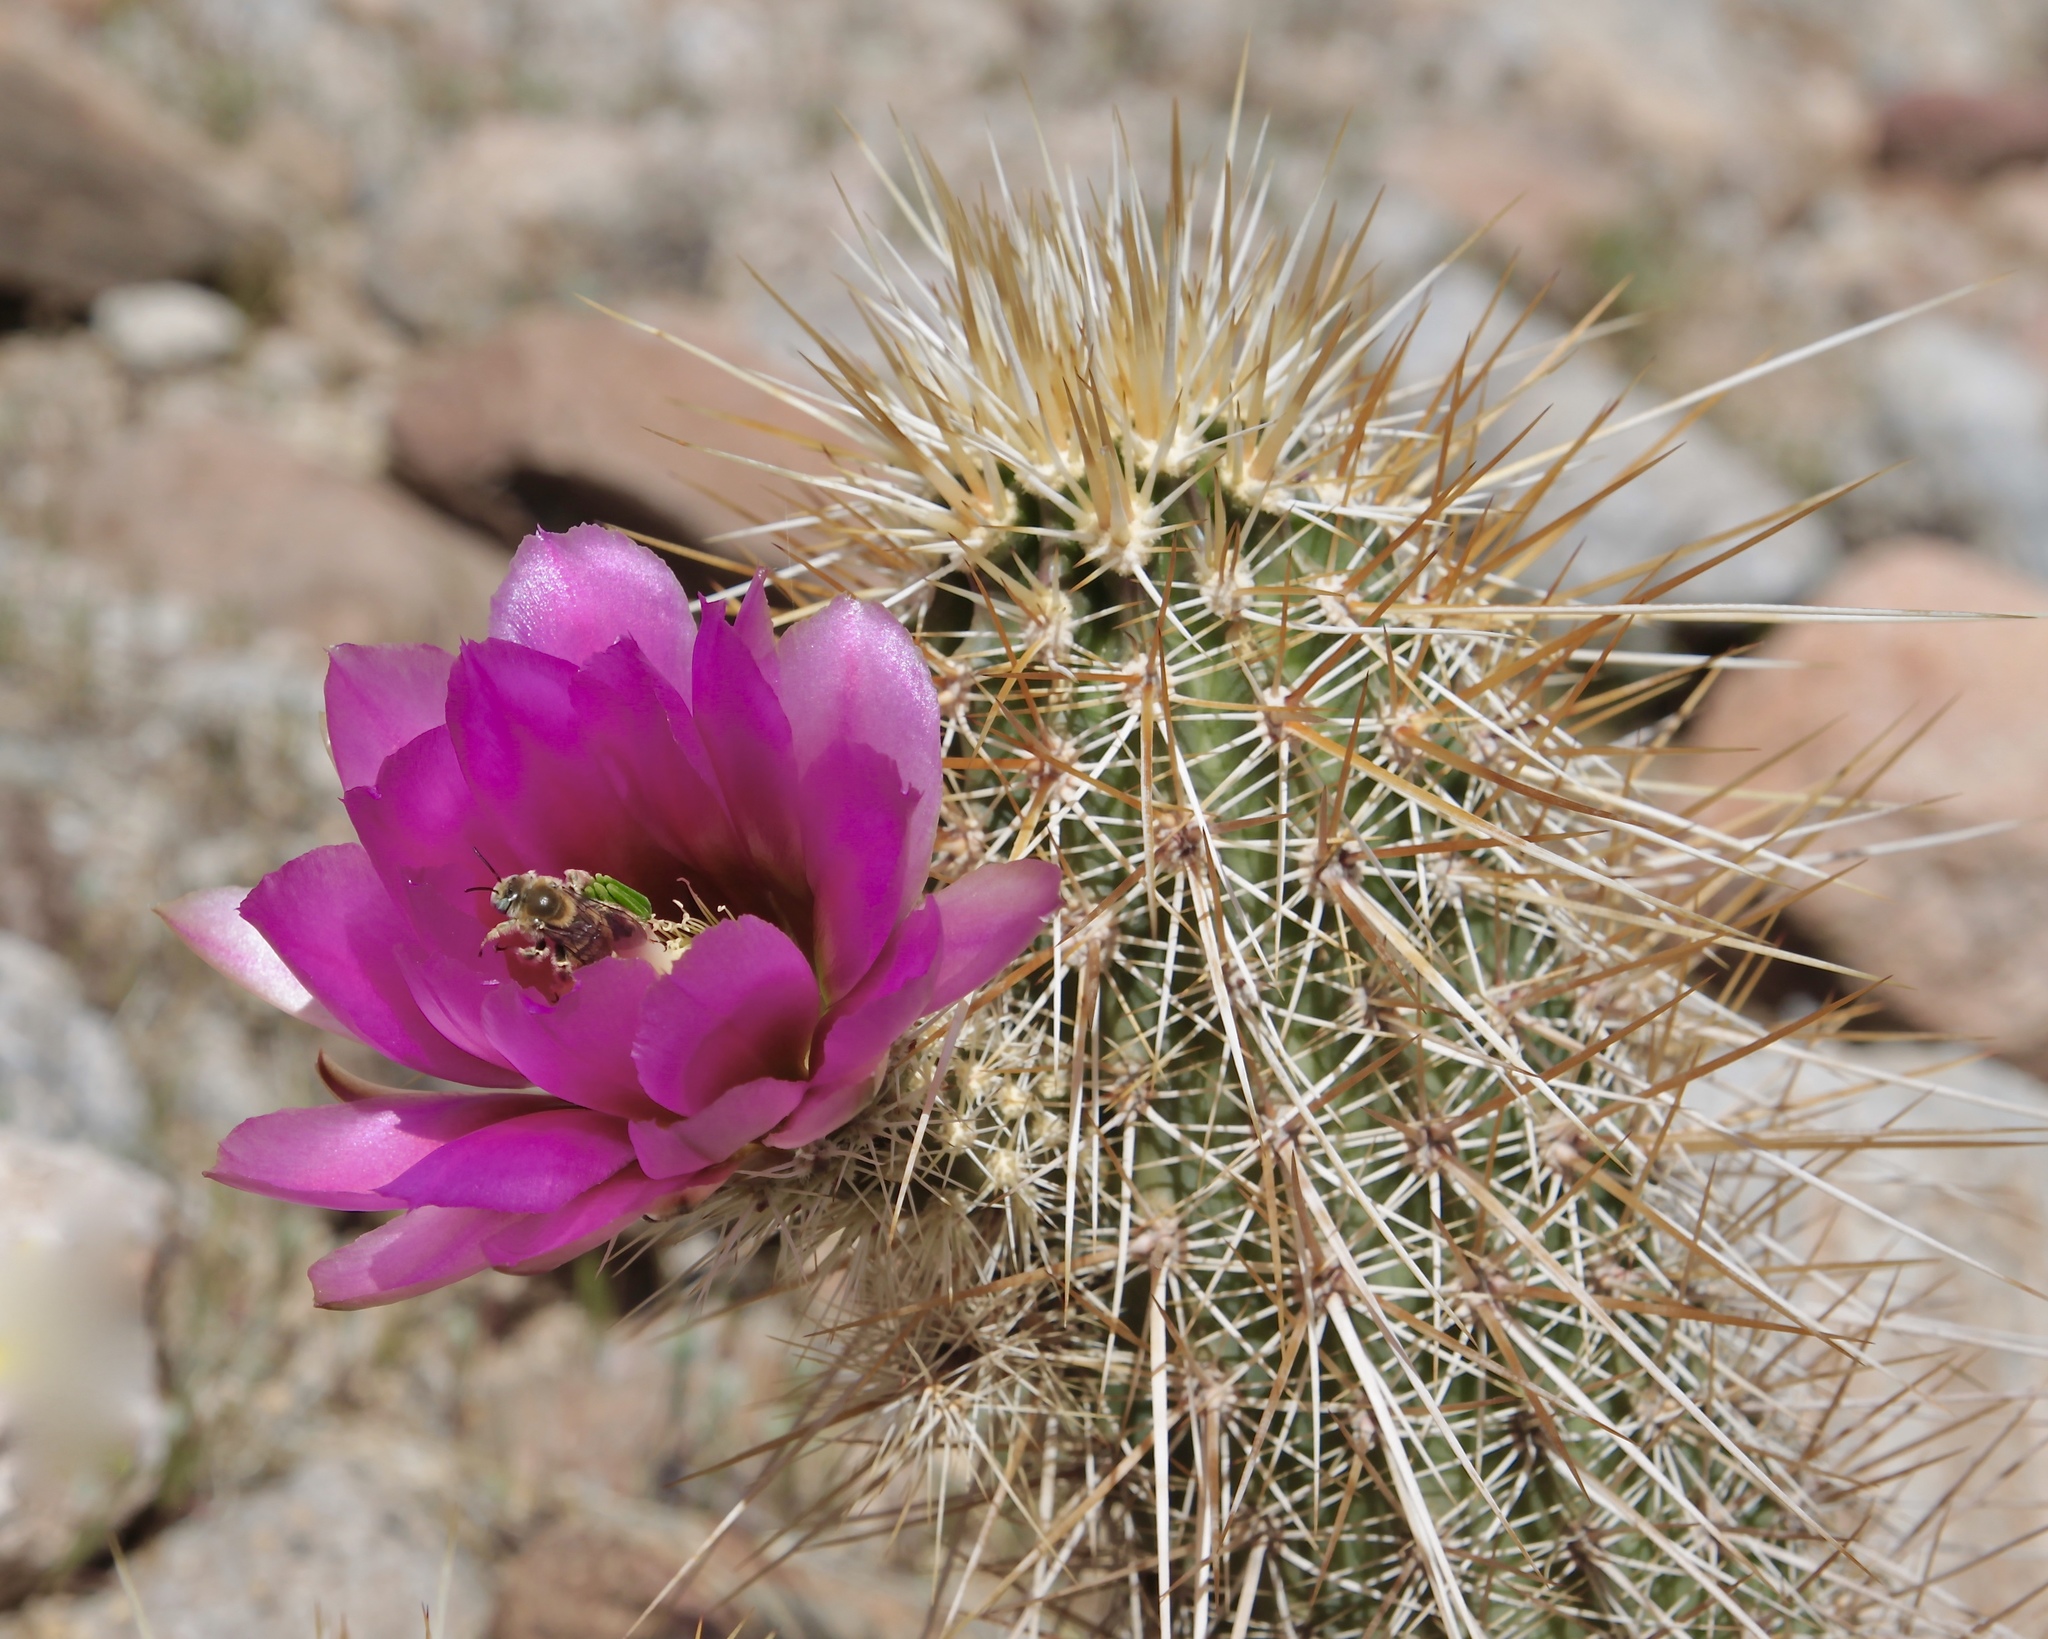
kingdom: Plantae
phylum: Tracheophyta
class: Magnoliopsida
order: Caryophyllales
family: Cactaceae
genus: Echinocereus
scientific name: Echinocereus engelmannii
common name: Engelmann's hedgehog cactus
